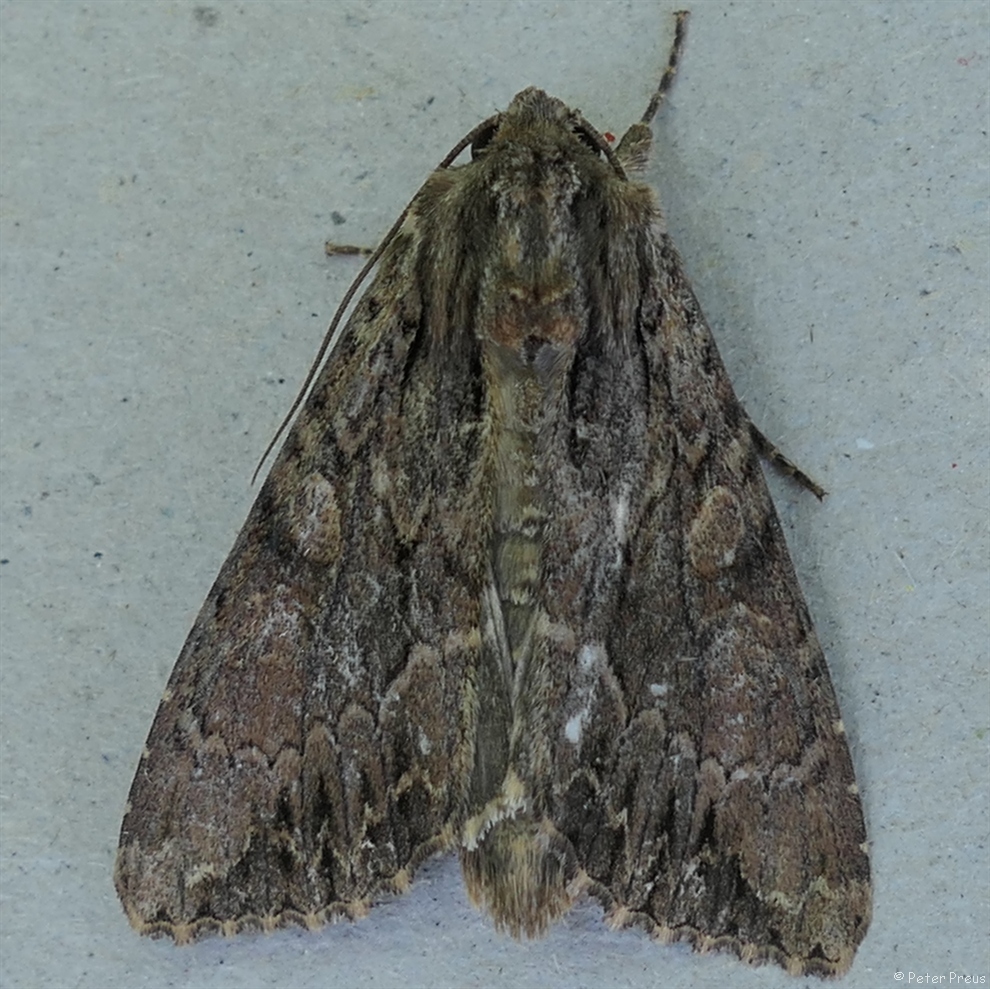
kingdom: Animalia
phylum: Arthropoda
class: Insecta
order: Lepidoptera
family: Noctuidae
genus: Apamea
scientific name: Apamea monoglypha
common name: Dark arches
